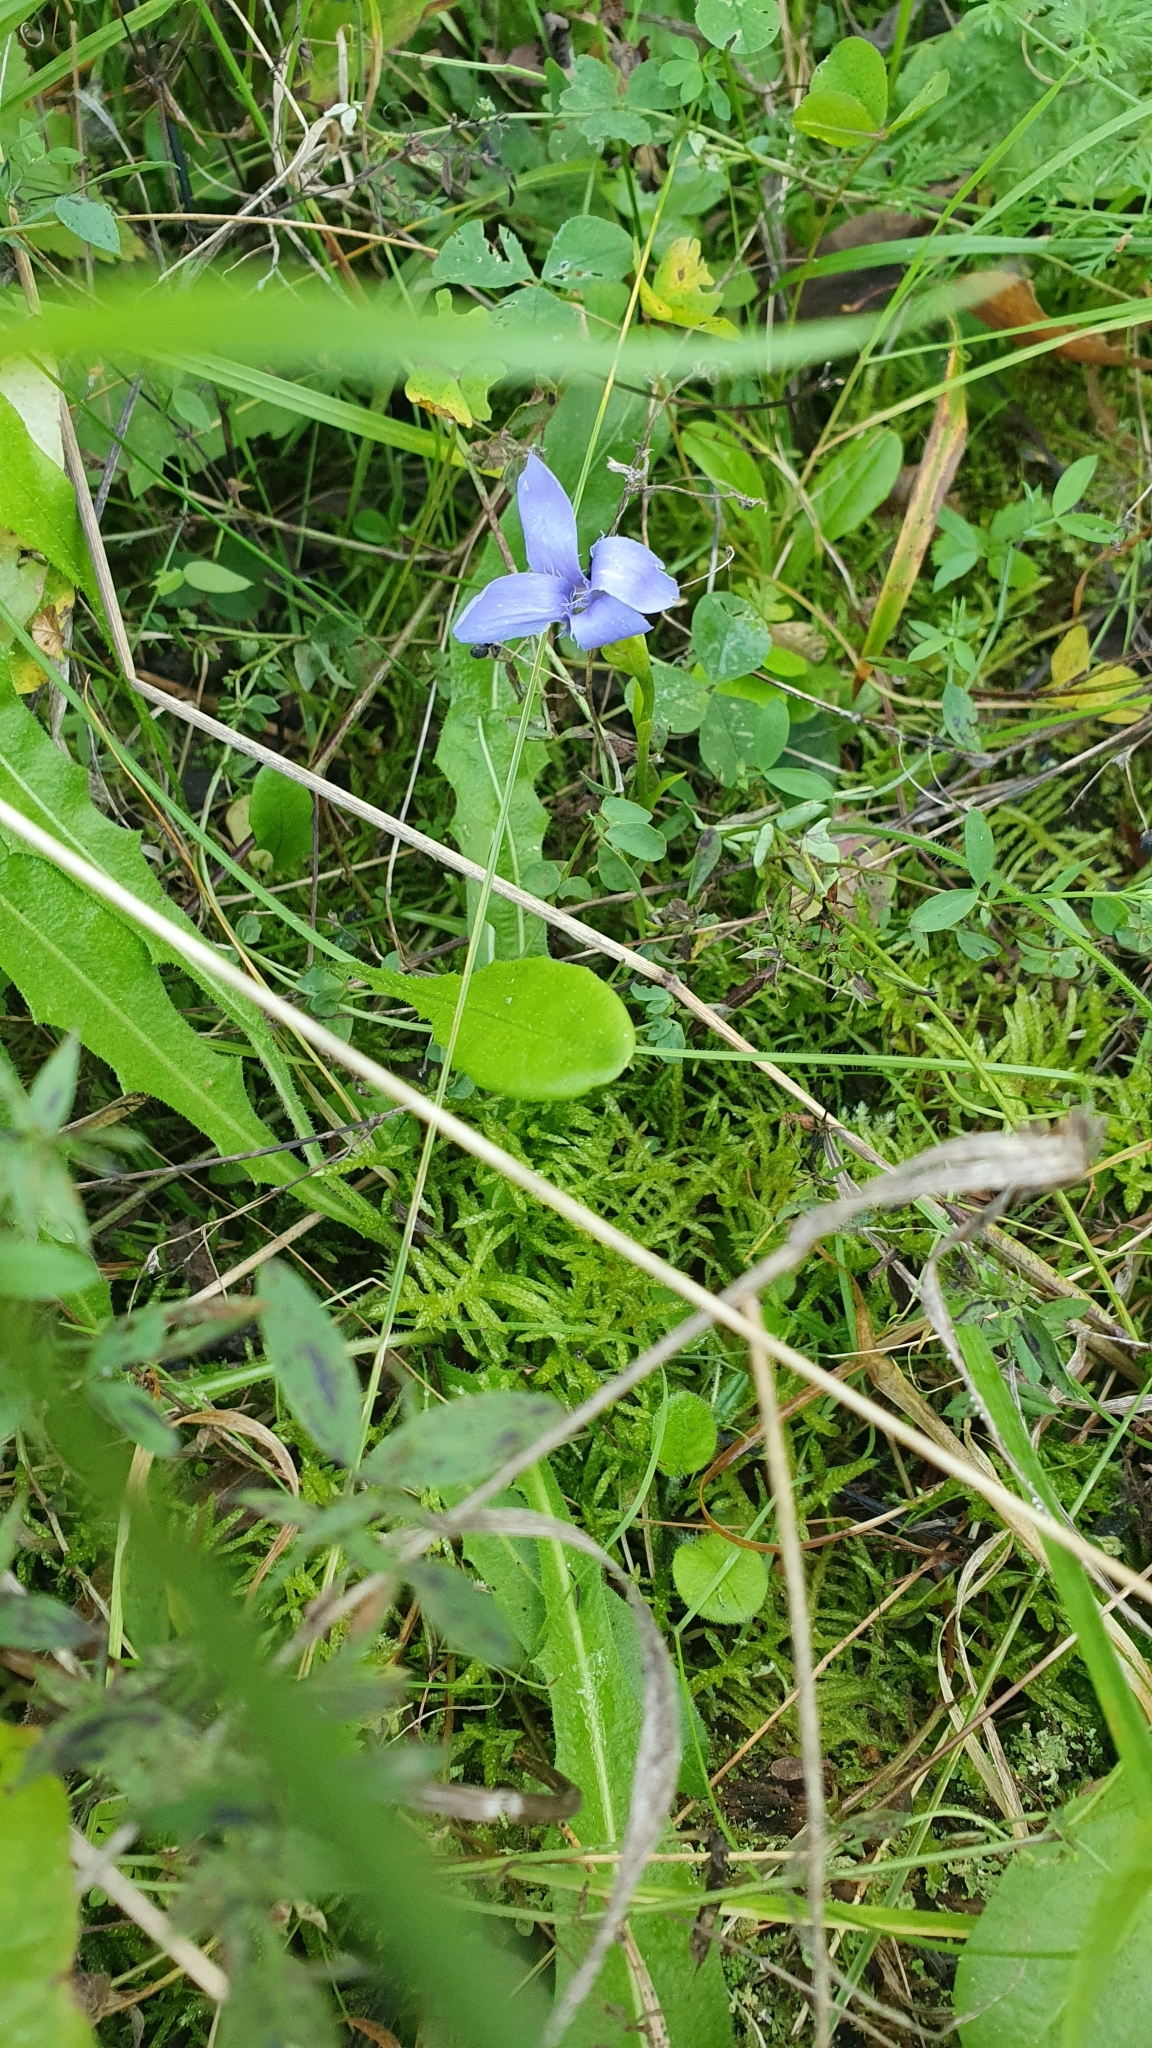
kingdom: Plantae
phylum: Tracheophyta
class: Magnoliopsida
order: Gentianales
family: Gentianaceae
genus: Gentianopsis
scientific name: Gentianopsis ciliata
